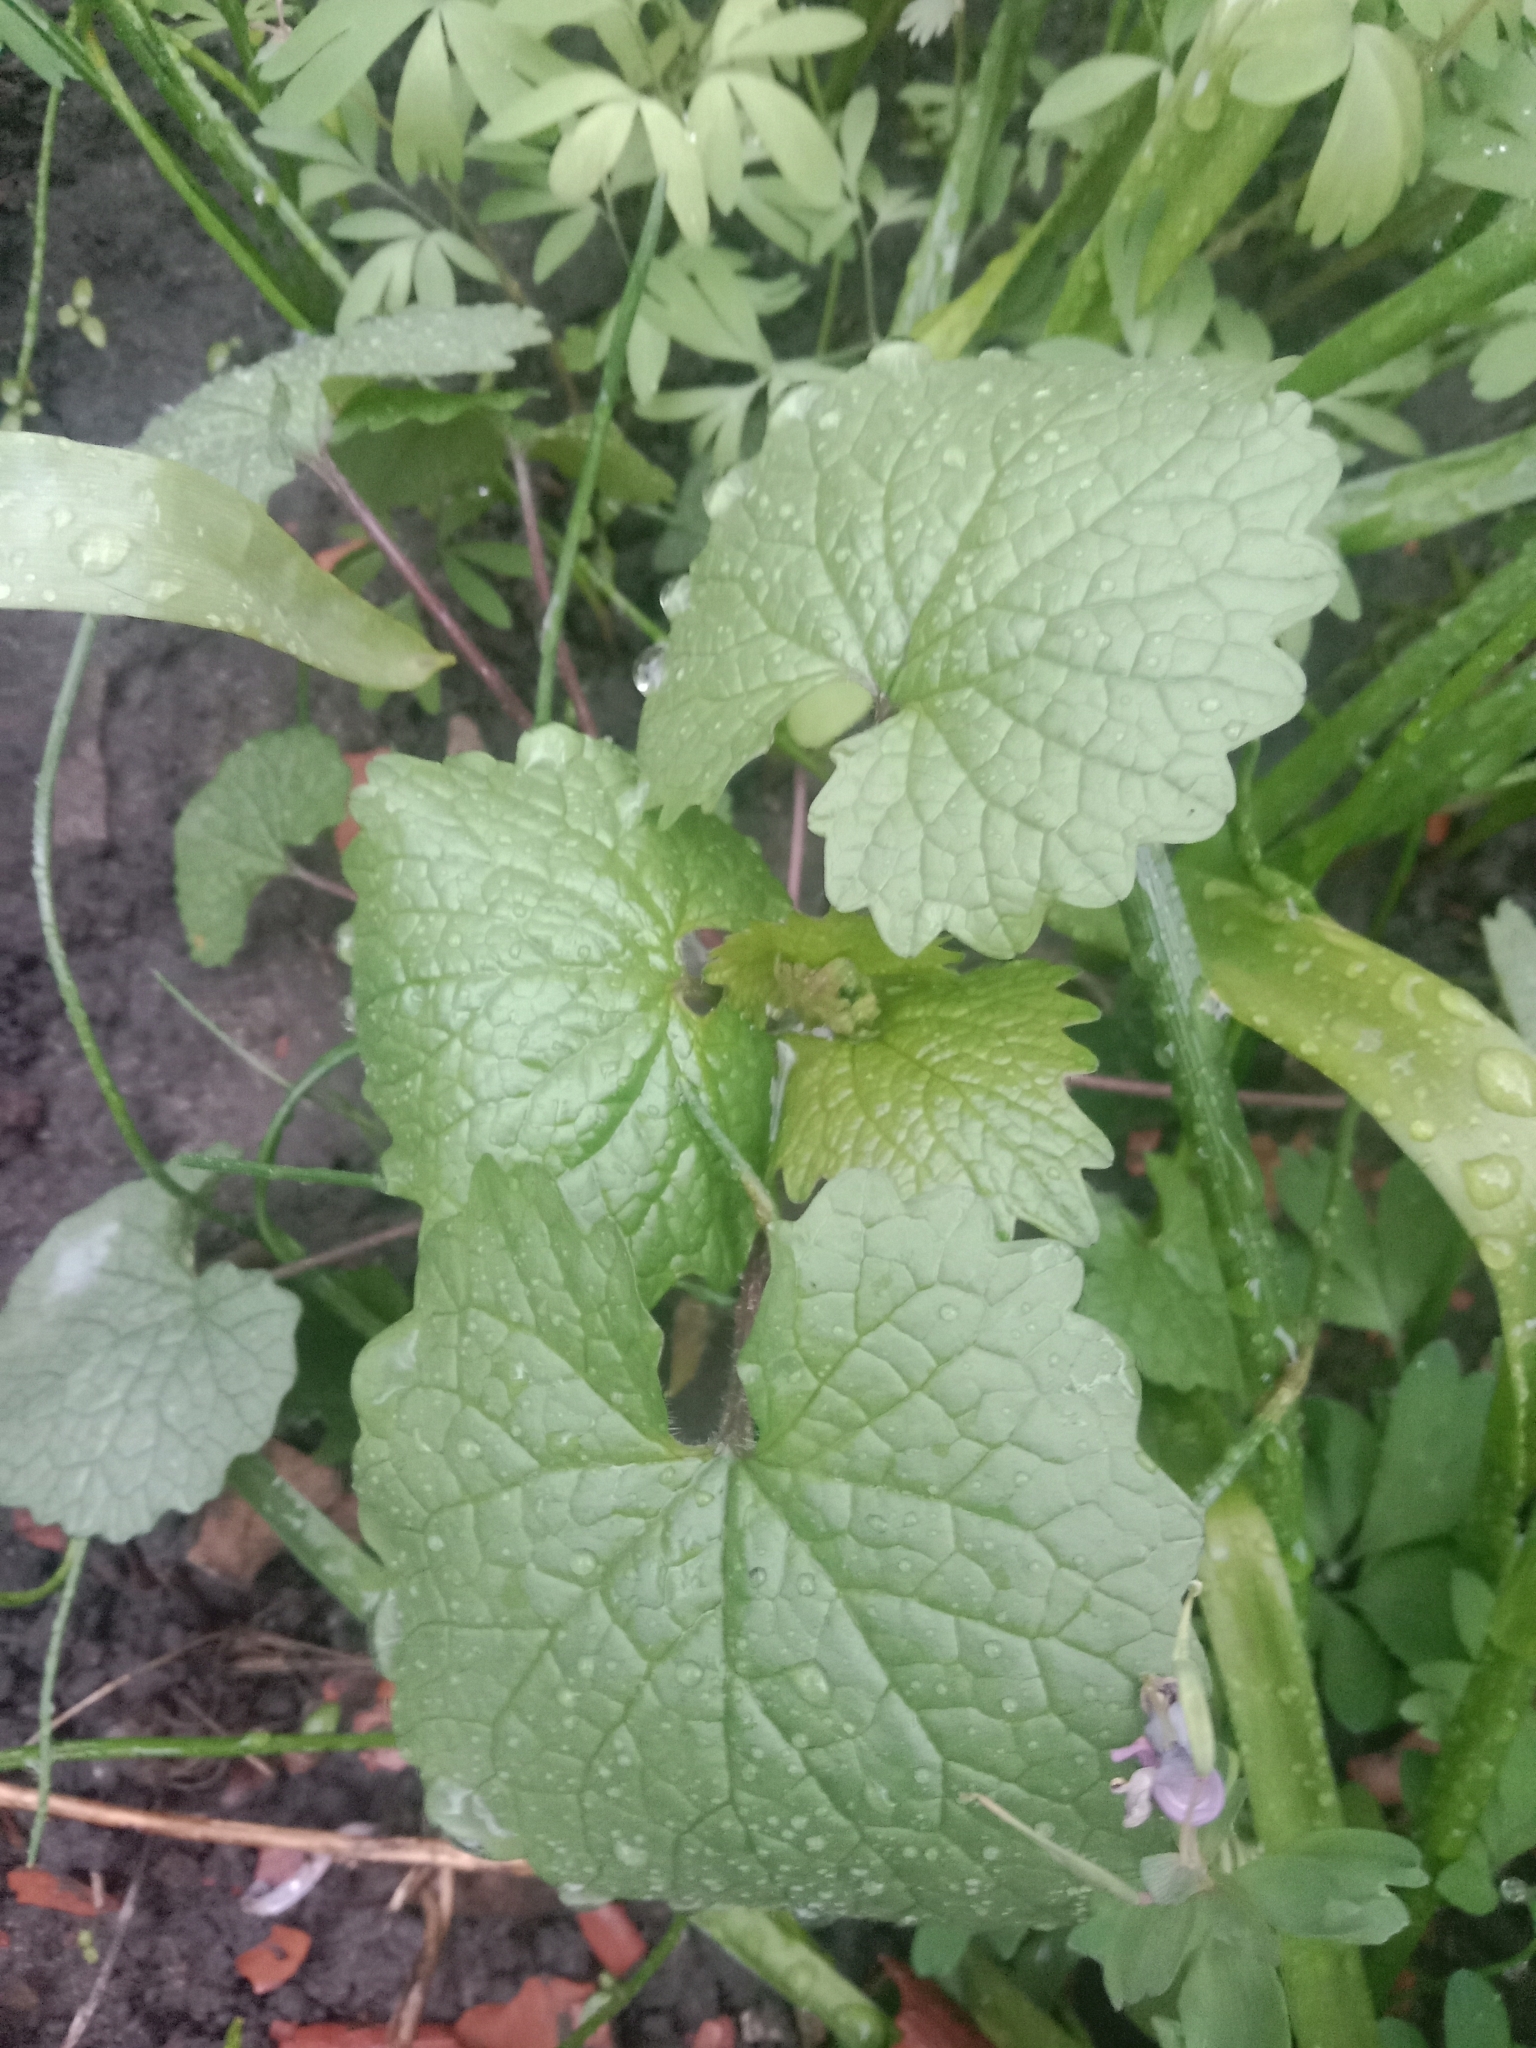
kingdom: Plantae
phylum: Tracheophyta
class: Magnoliopsida
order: Brassicales
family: Brassicaceae
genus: Alliaria
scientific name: Alliaria petiolata
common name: Garlic mustard
